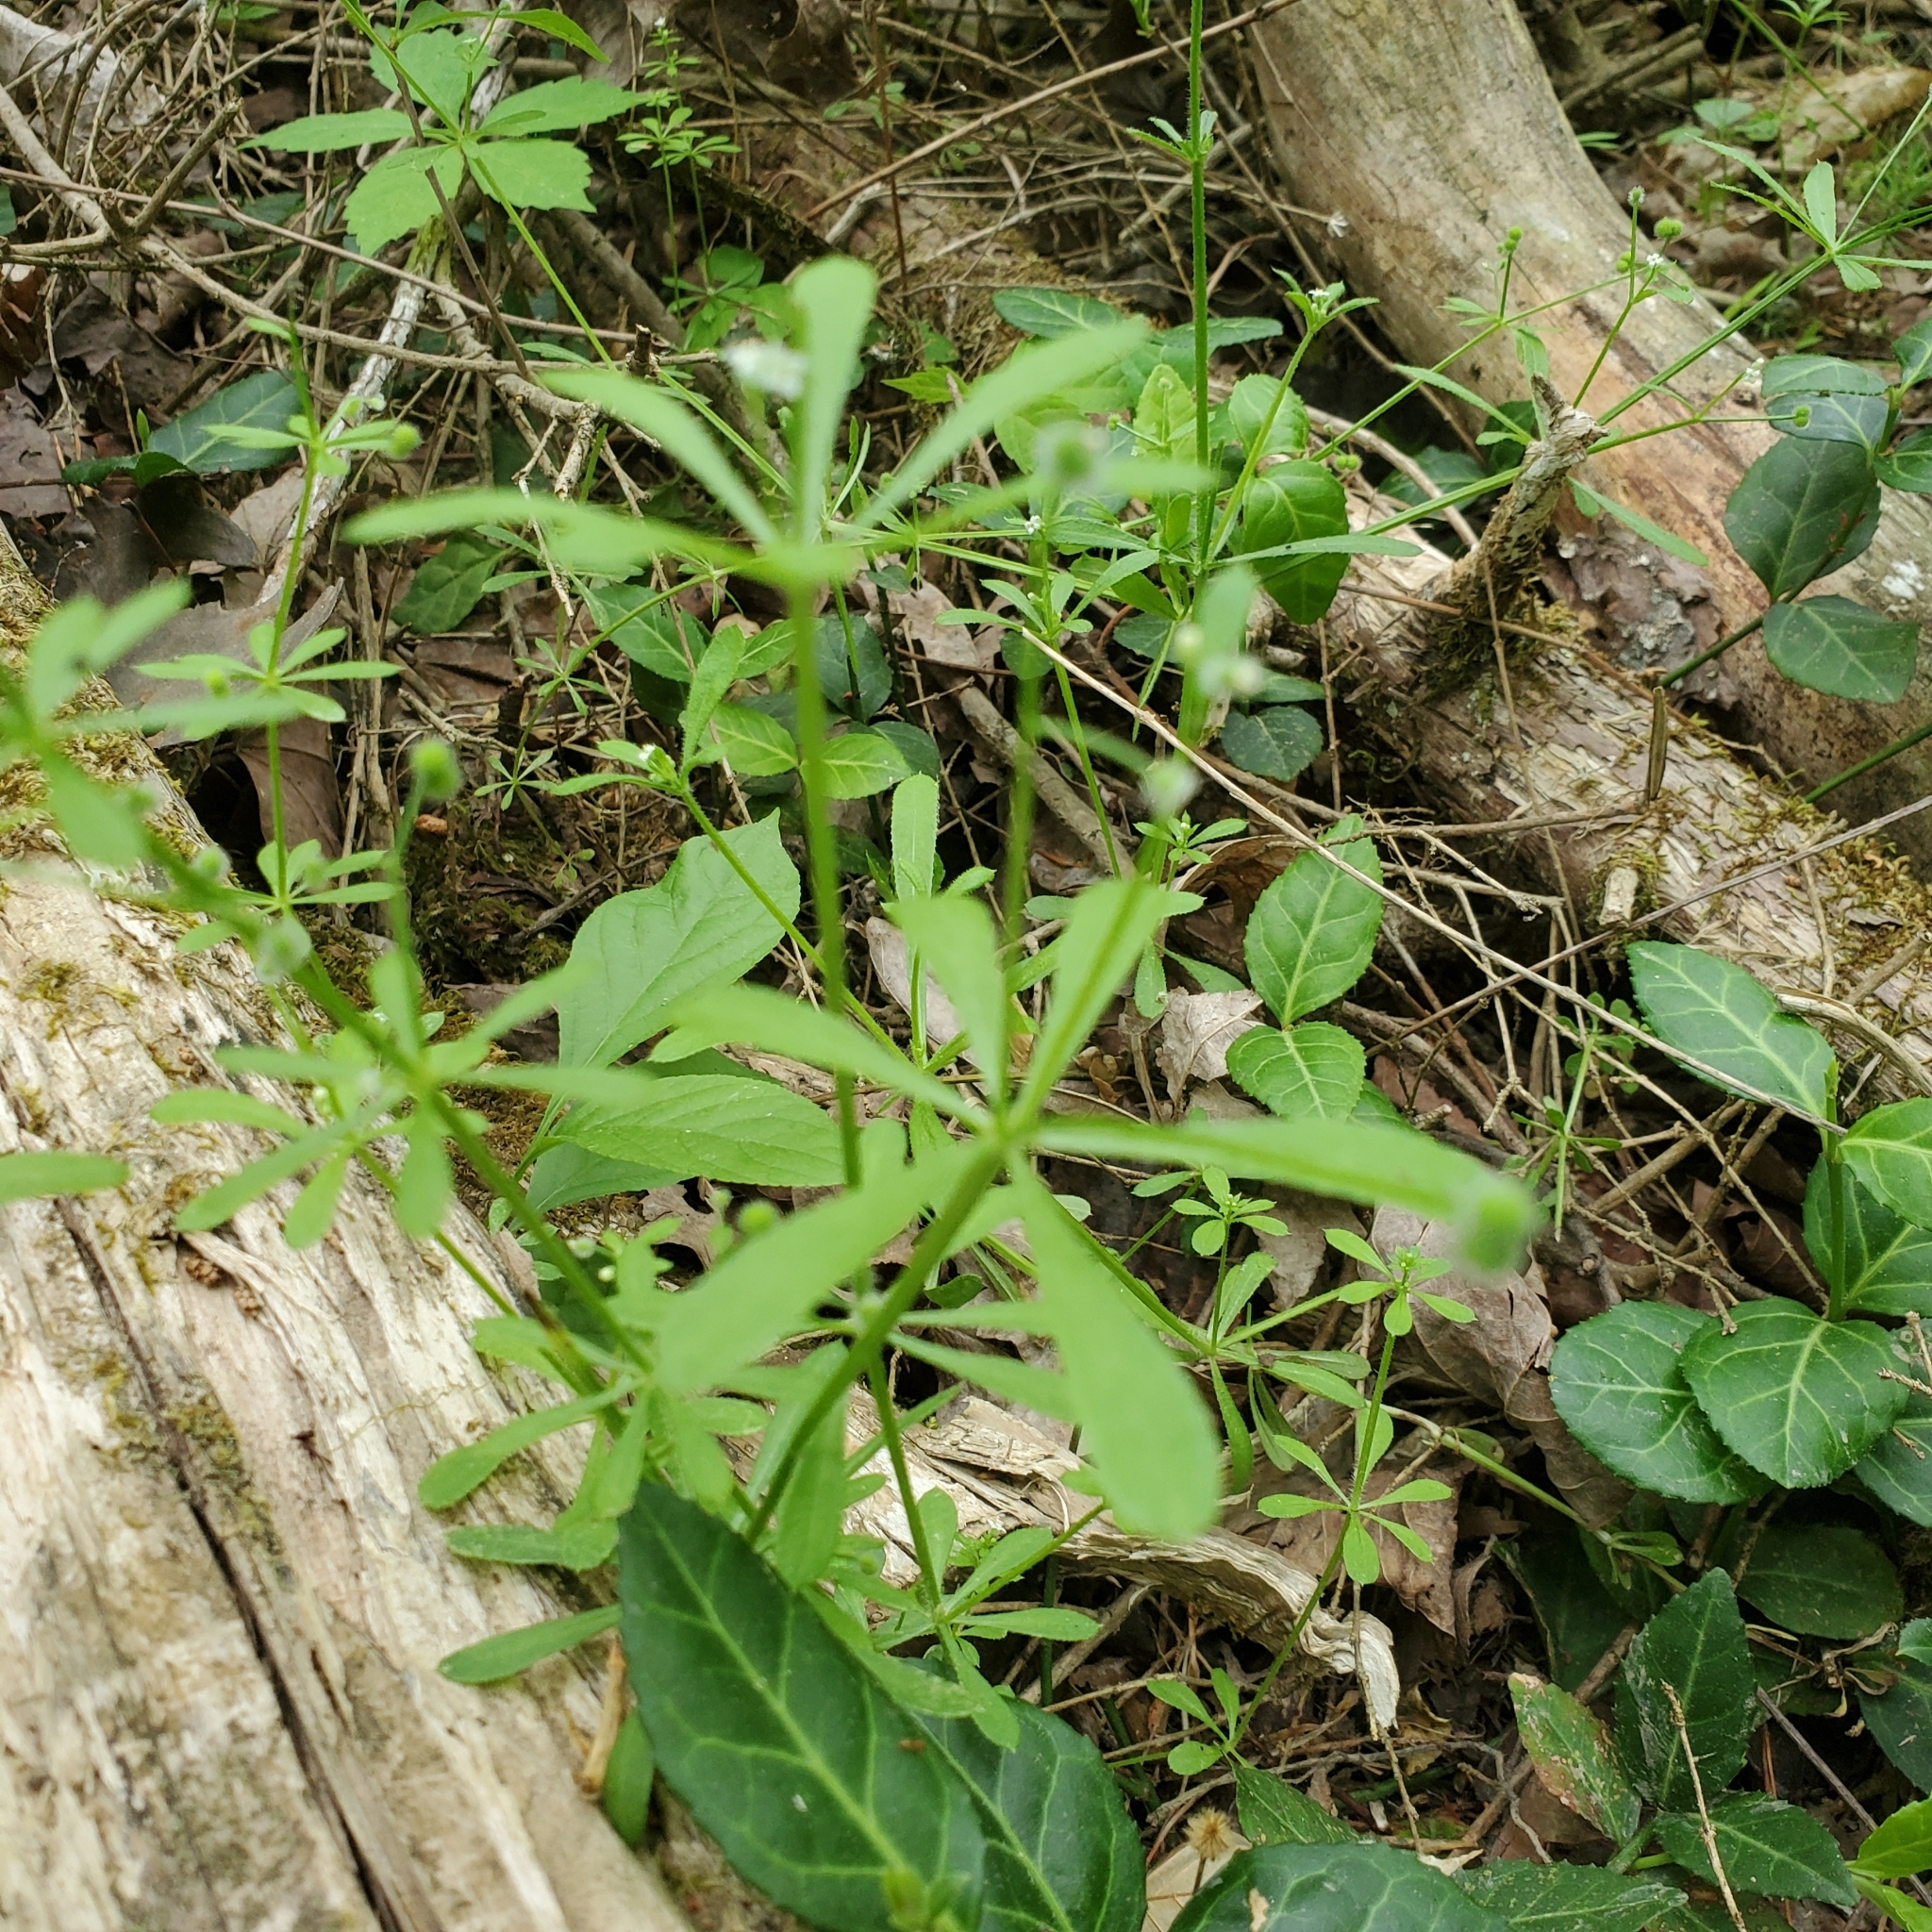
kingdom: Plantae
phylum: Tracheophyta
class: Magnoliopsida
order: Gentianales
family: Rubiaceae
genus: Galium
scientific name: Galium aparine
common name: Cleavers
